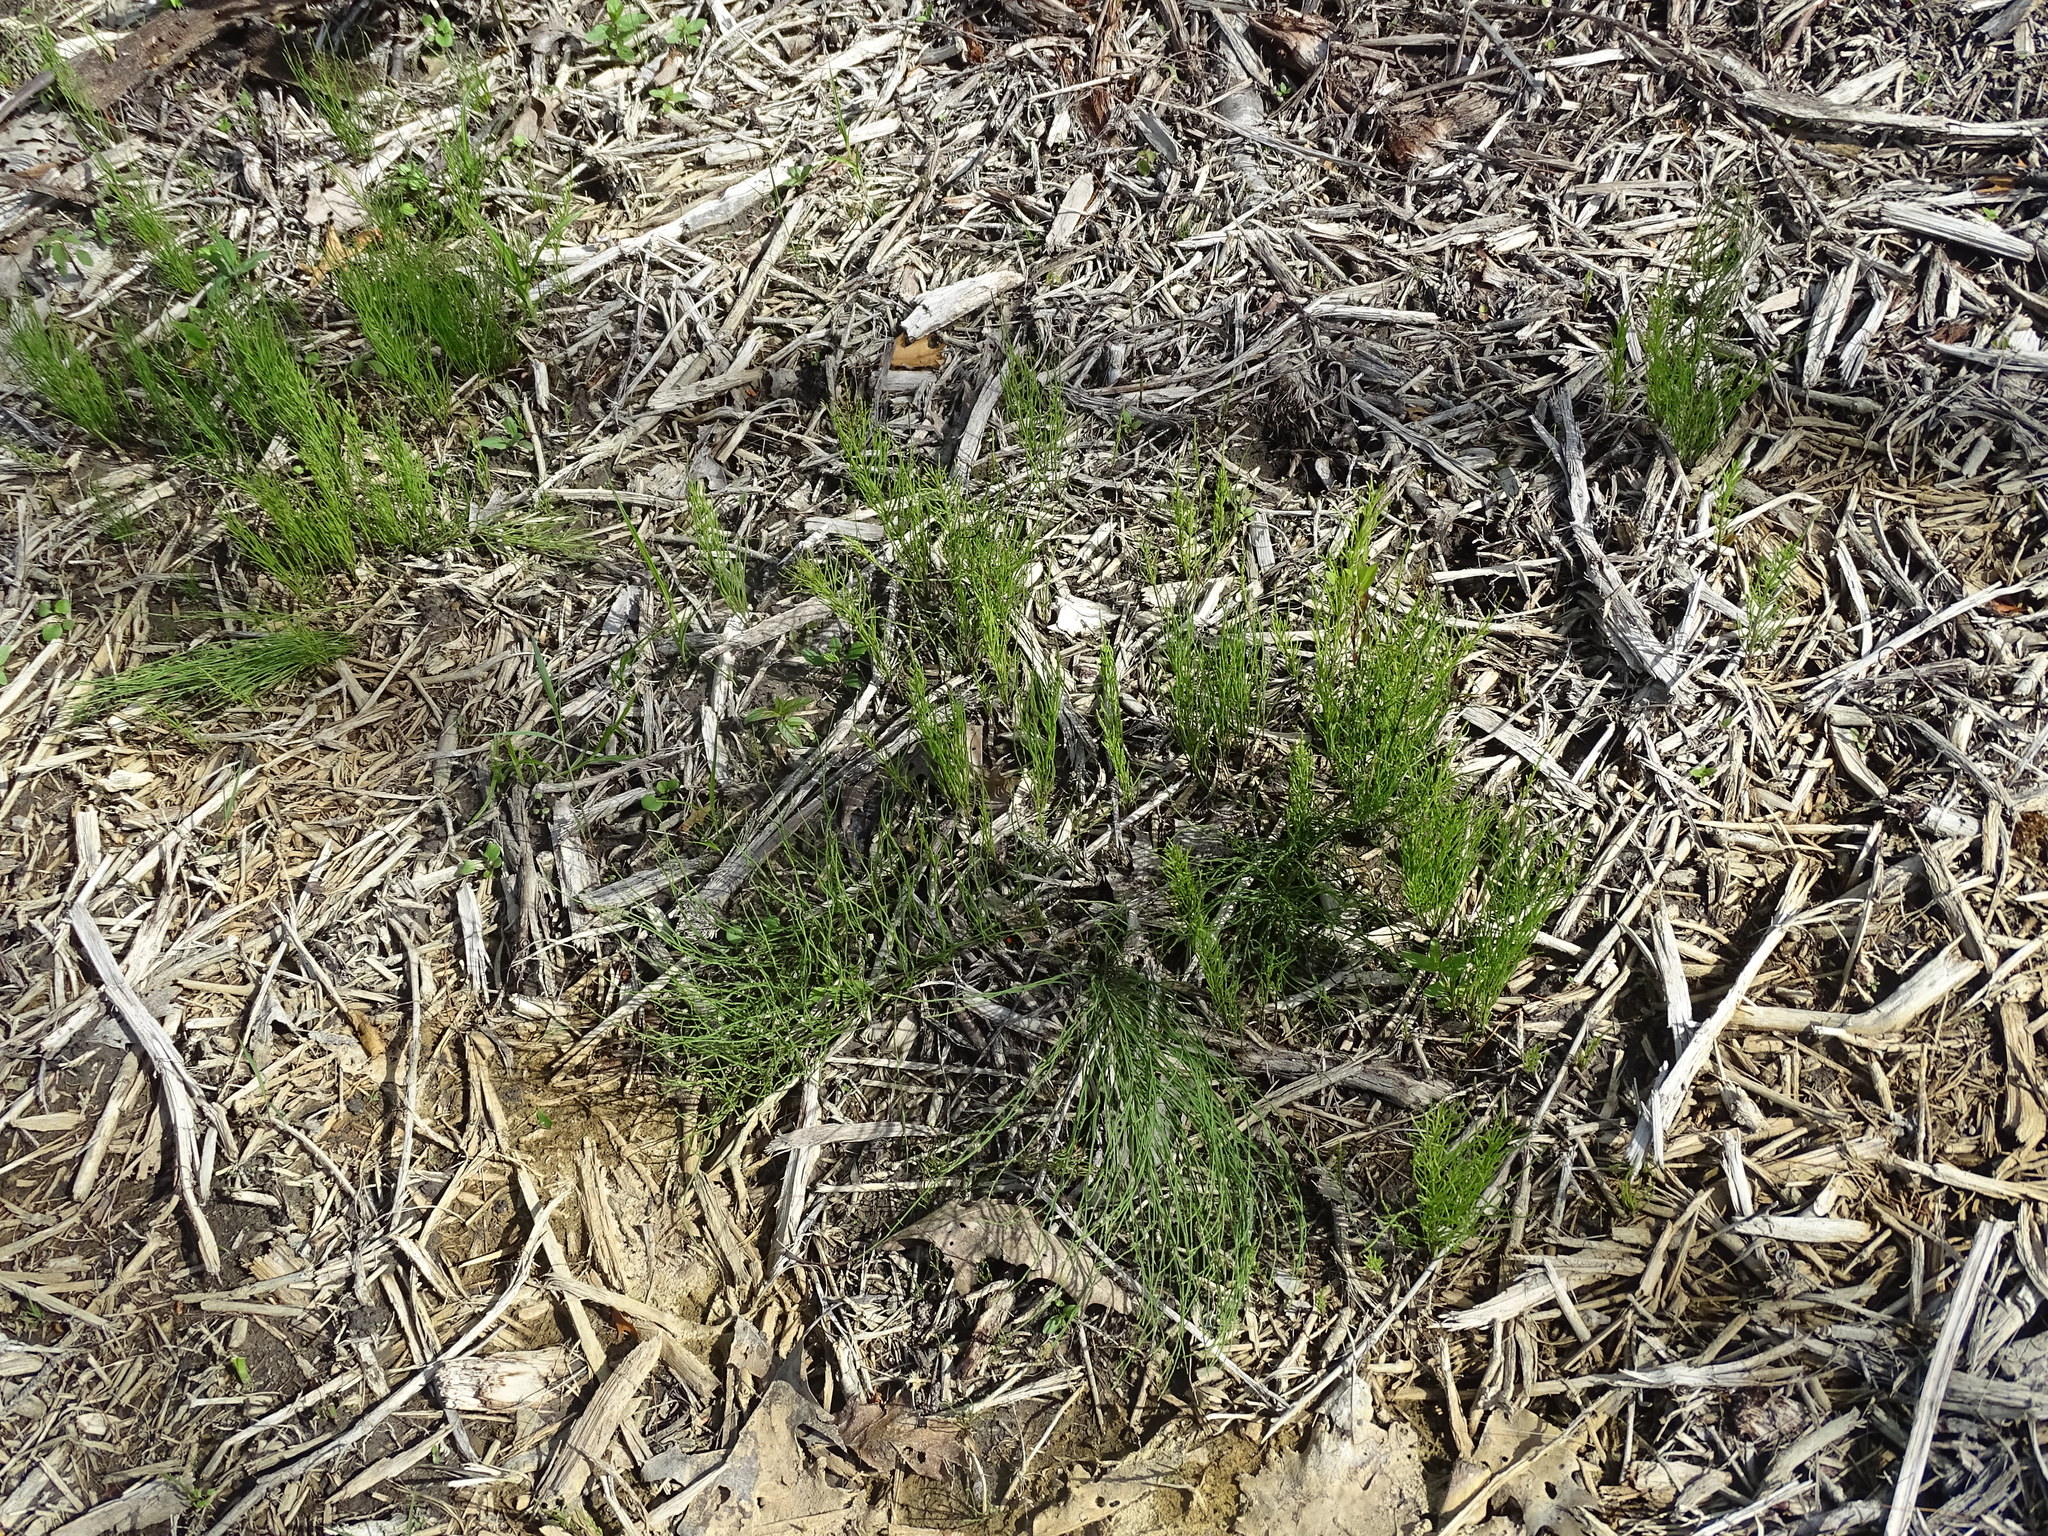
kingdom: Plantae
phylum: Tracheophyta
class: Polypodiopsida
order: Equisetales
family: Equisetaceae
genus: Equisetum
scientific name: Equisetum arvense
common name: Field horsetail
